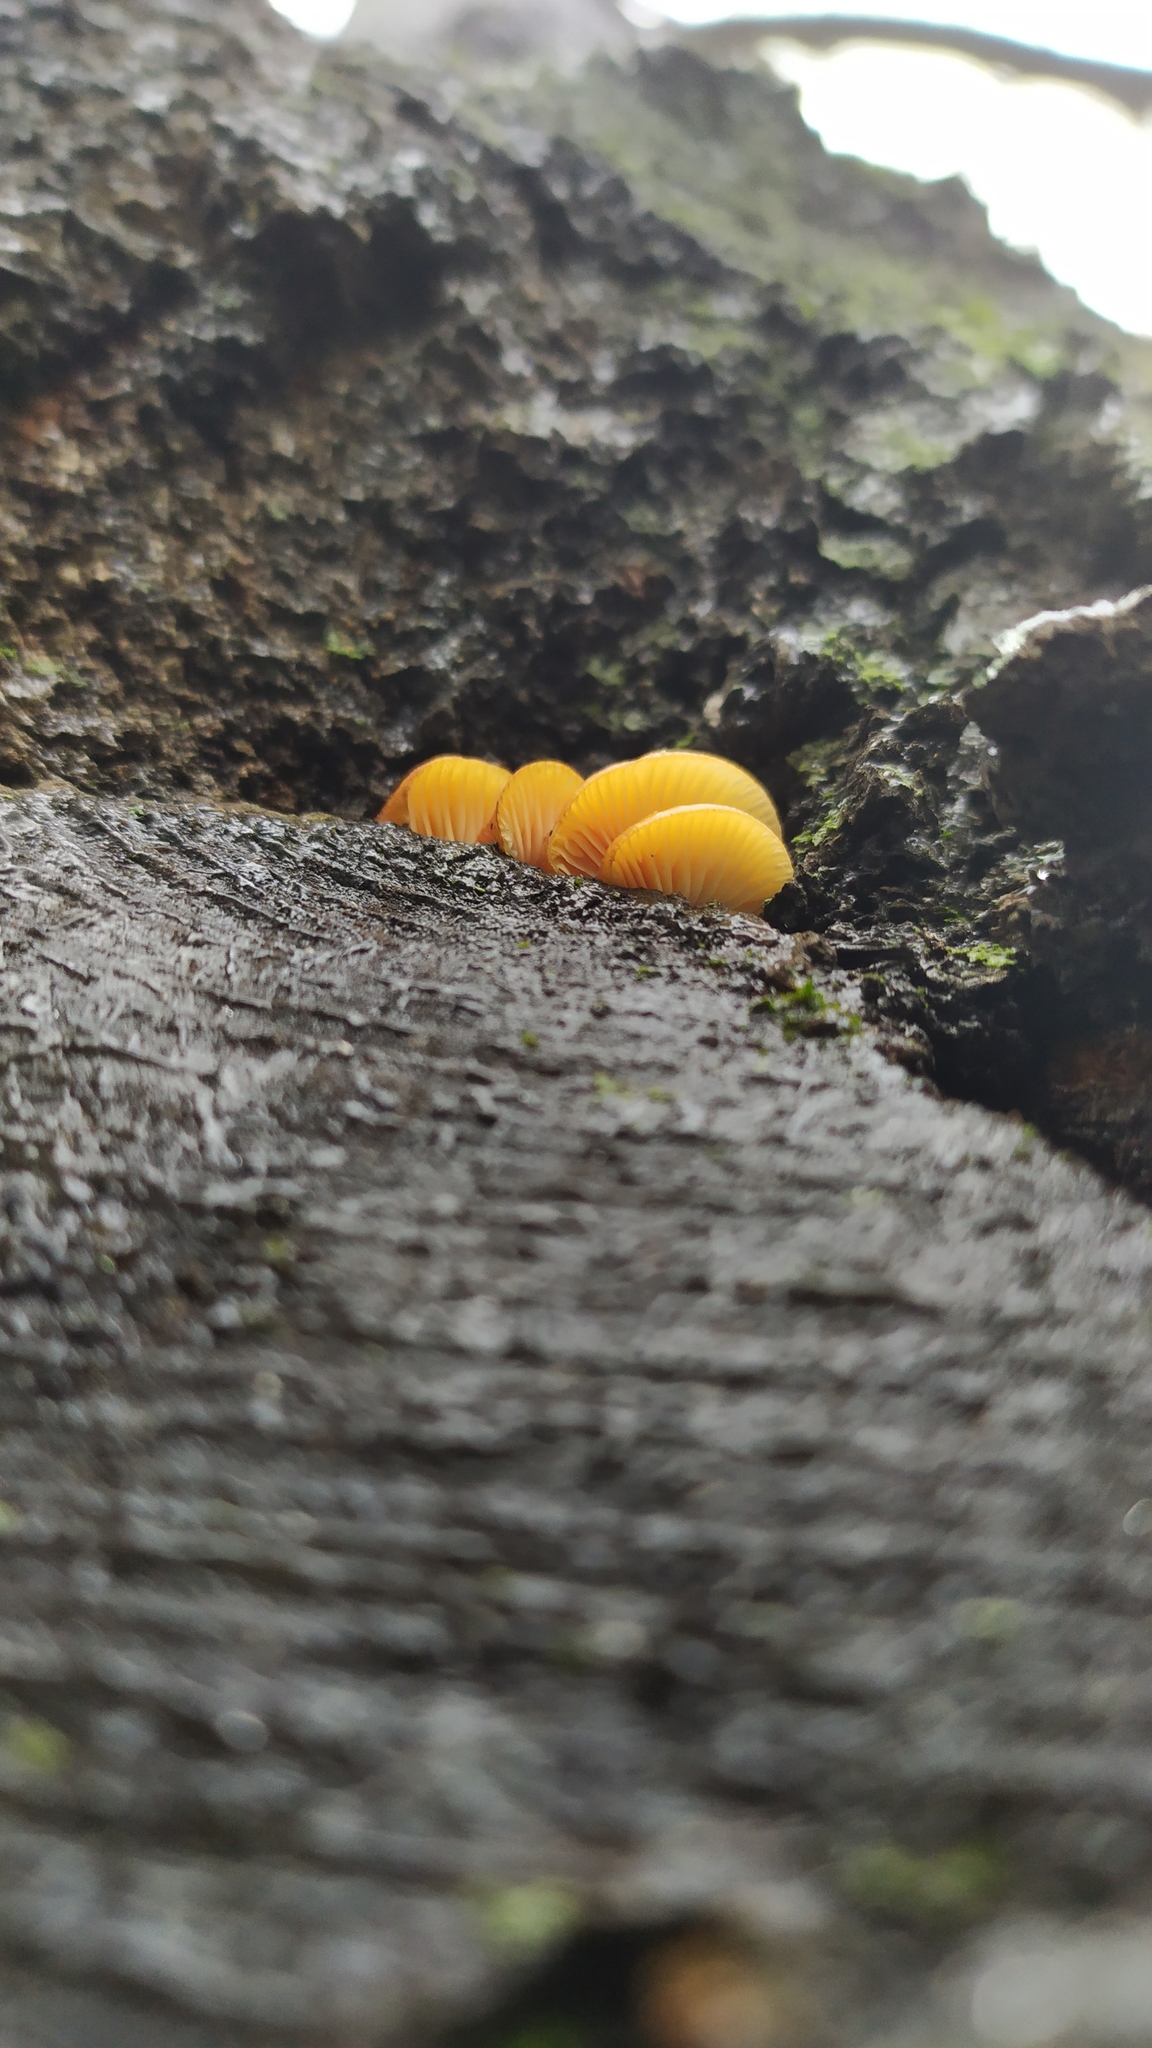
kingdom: Fungi
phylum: Basidiomycota
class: Agaricomycetes
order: Agaricales
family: Physalacriaceae
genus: Flammulina
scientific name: Flammulina
